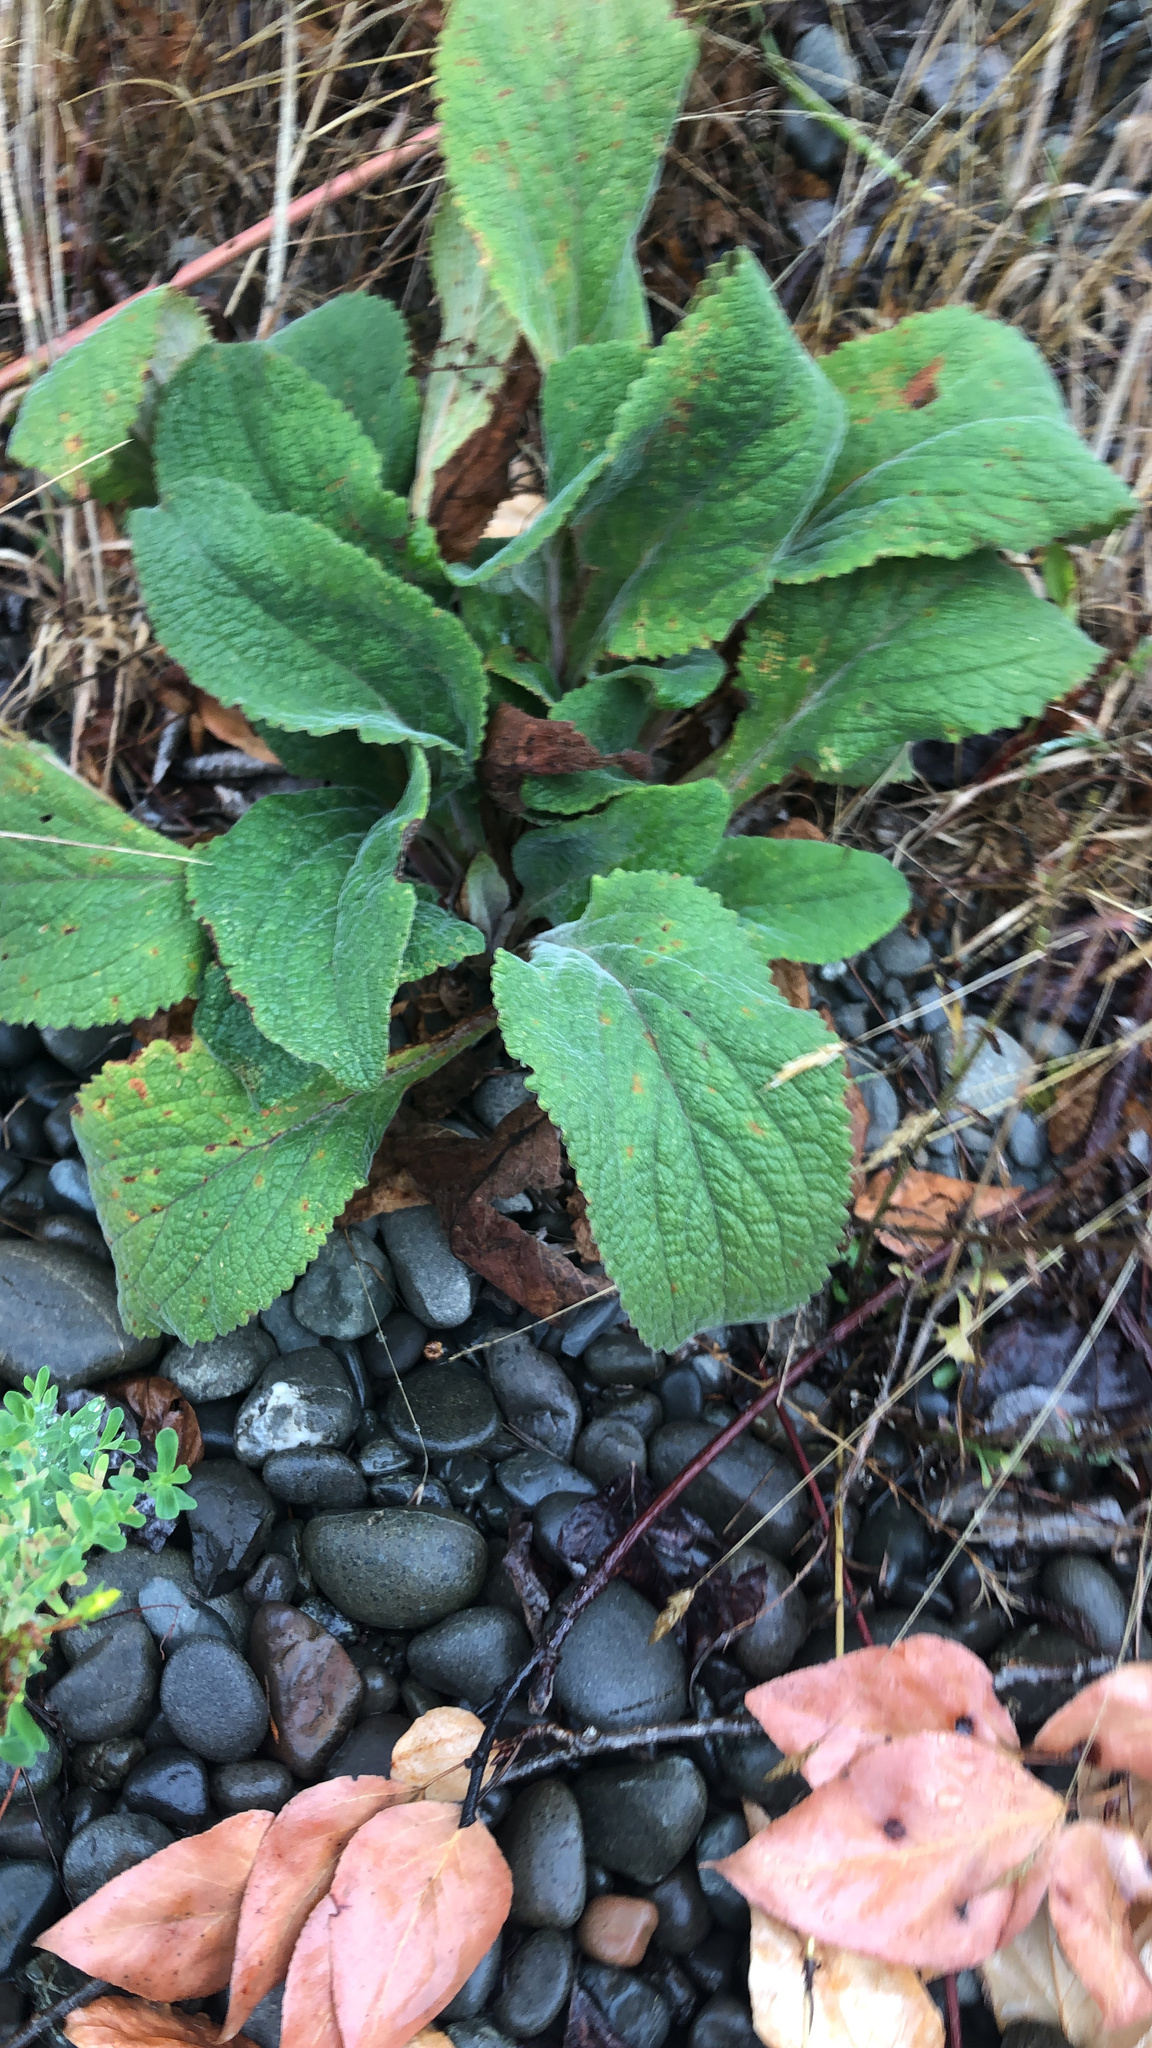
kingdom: Plantae
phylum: Tracheophyta
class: Magnoliopsida
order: Lamiales
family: Plantaginaceae
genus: Digitalis
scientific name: Digitalis purpurea
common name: Foxglove
